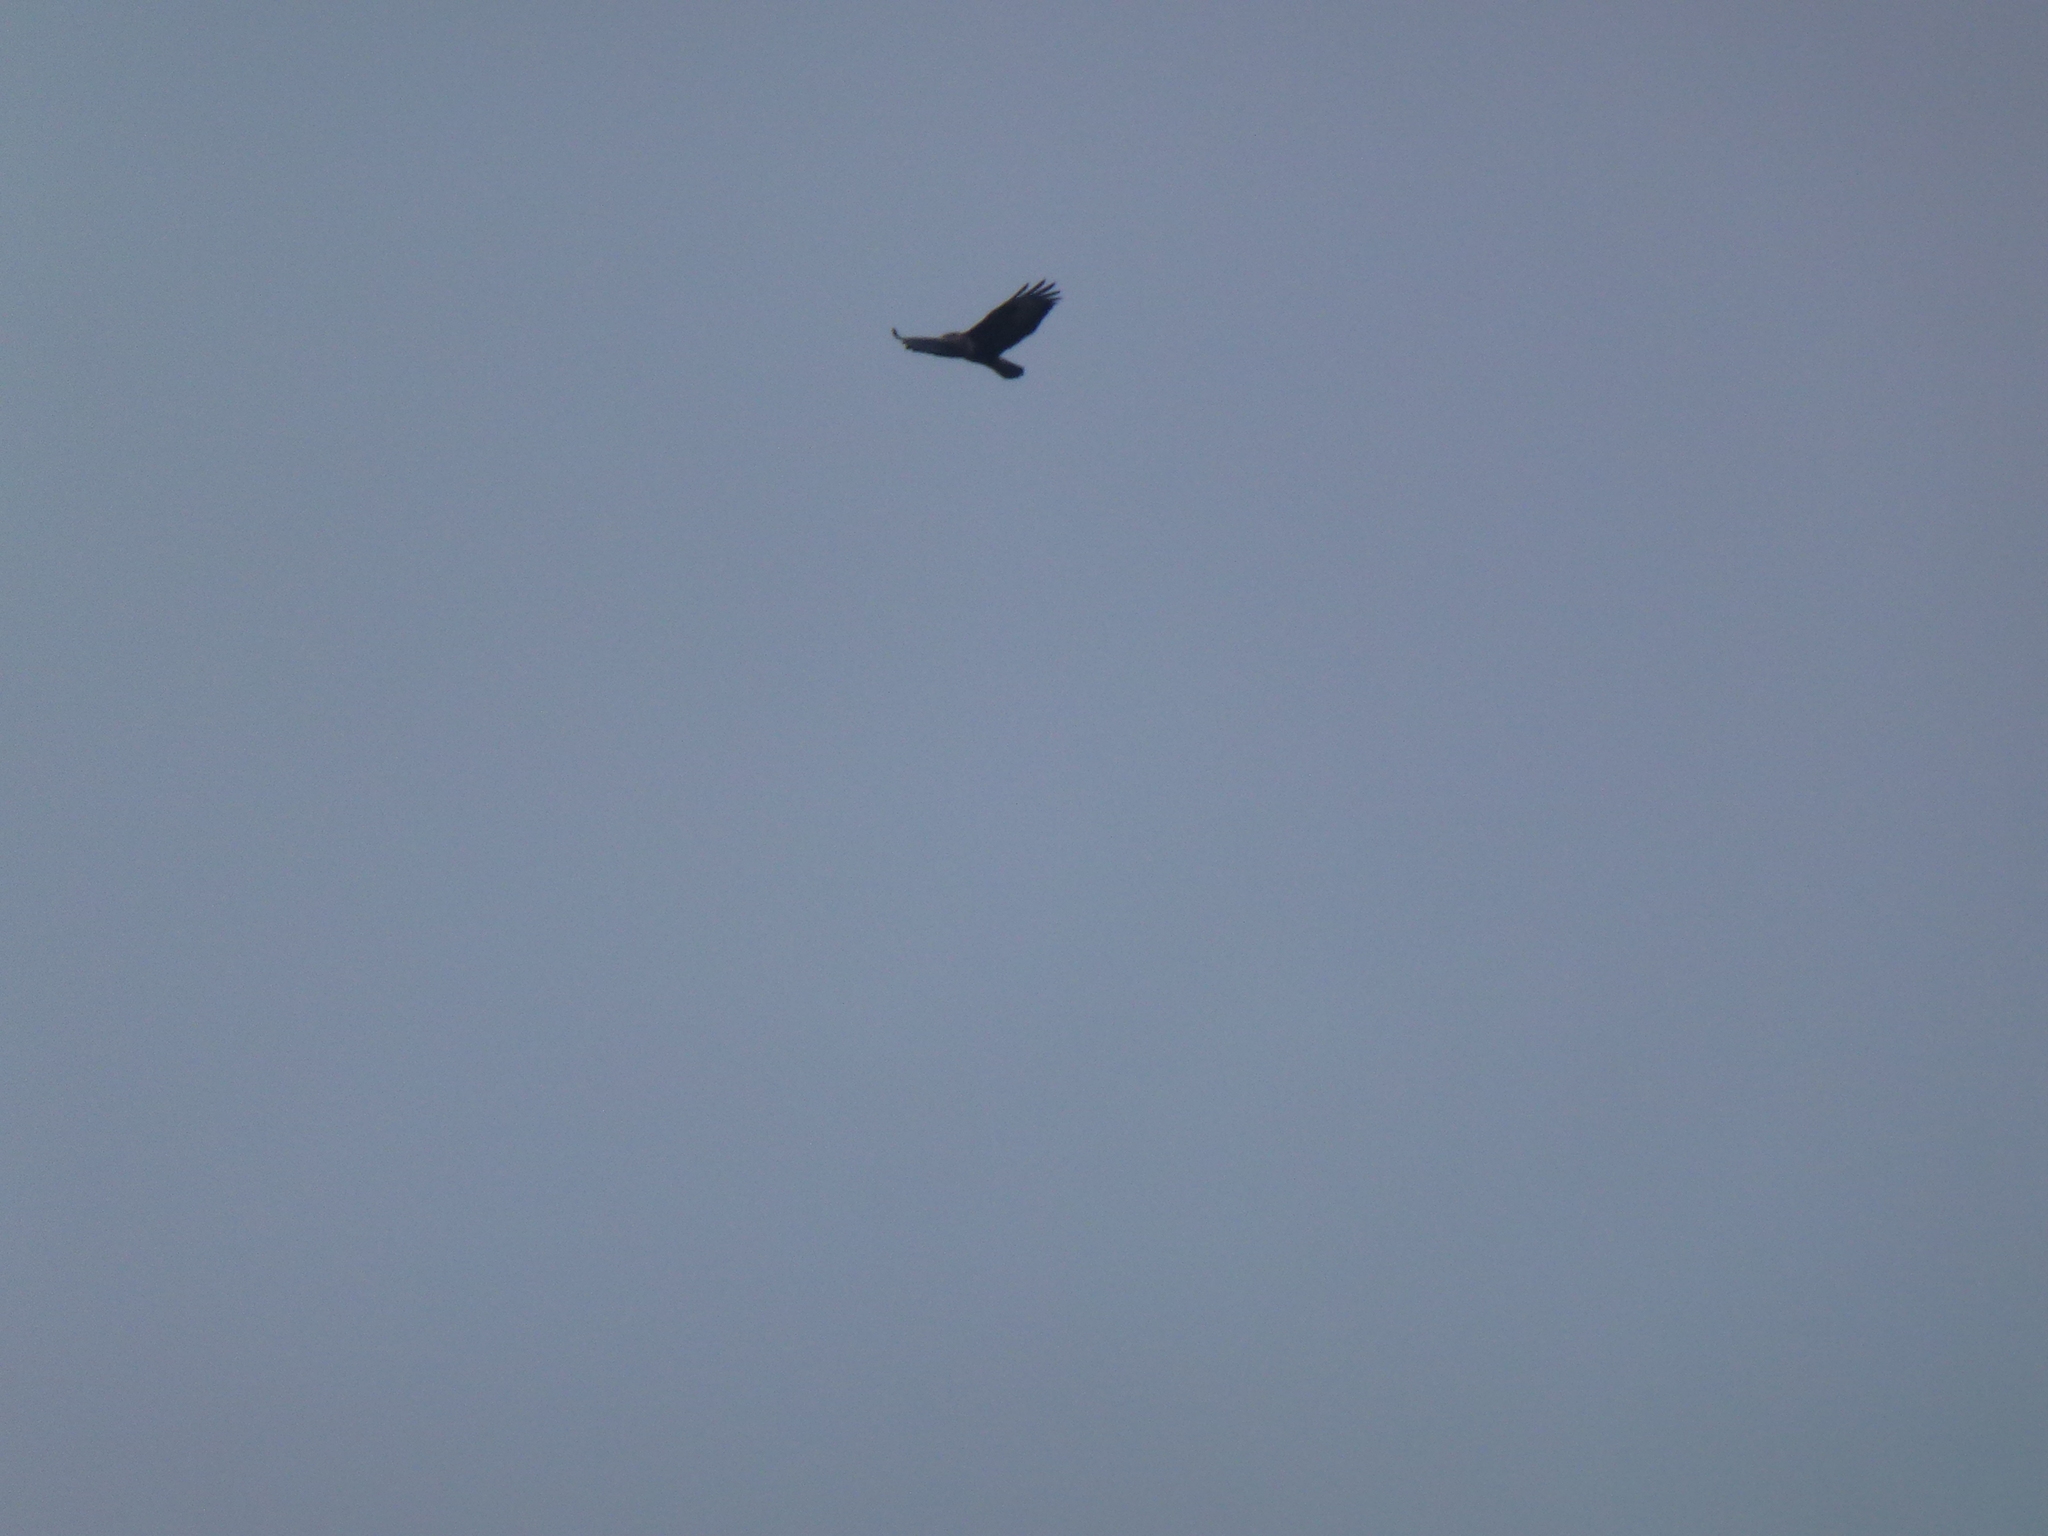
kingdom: Animalia
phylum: Chordata
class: Aves
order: Accipitriformes
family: Accipitridae
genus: Buteo
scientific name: Buteo buteo
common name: Common buzzard
